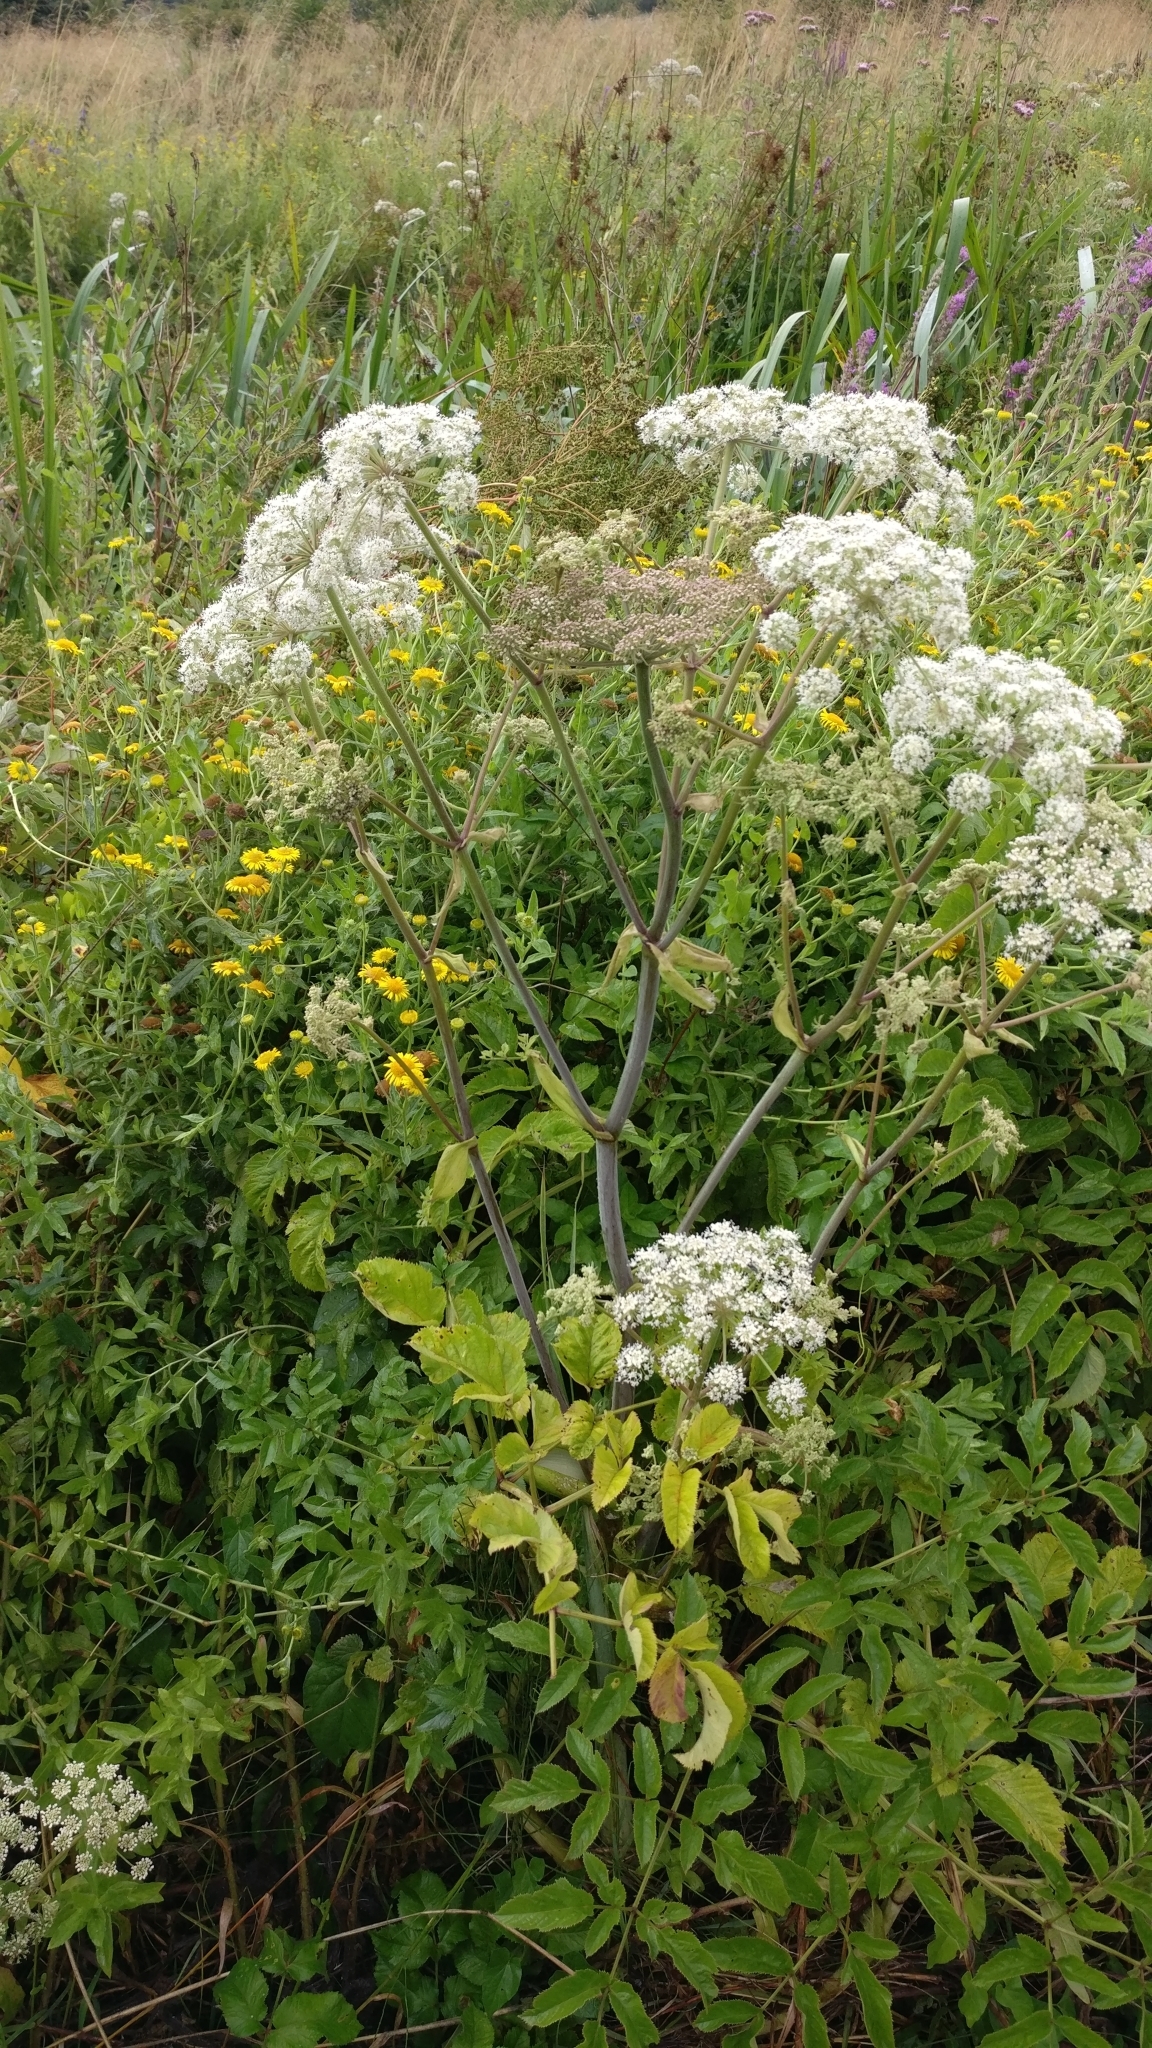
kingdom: Plantae
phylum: Tracheophyta
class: Magnoliopsida
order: Apiales
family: Apiaceae
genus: Angelica
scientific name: Angelica sylvestris
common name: Wild angelica
